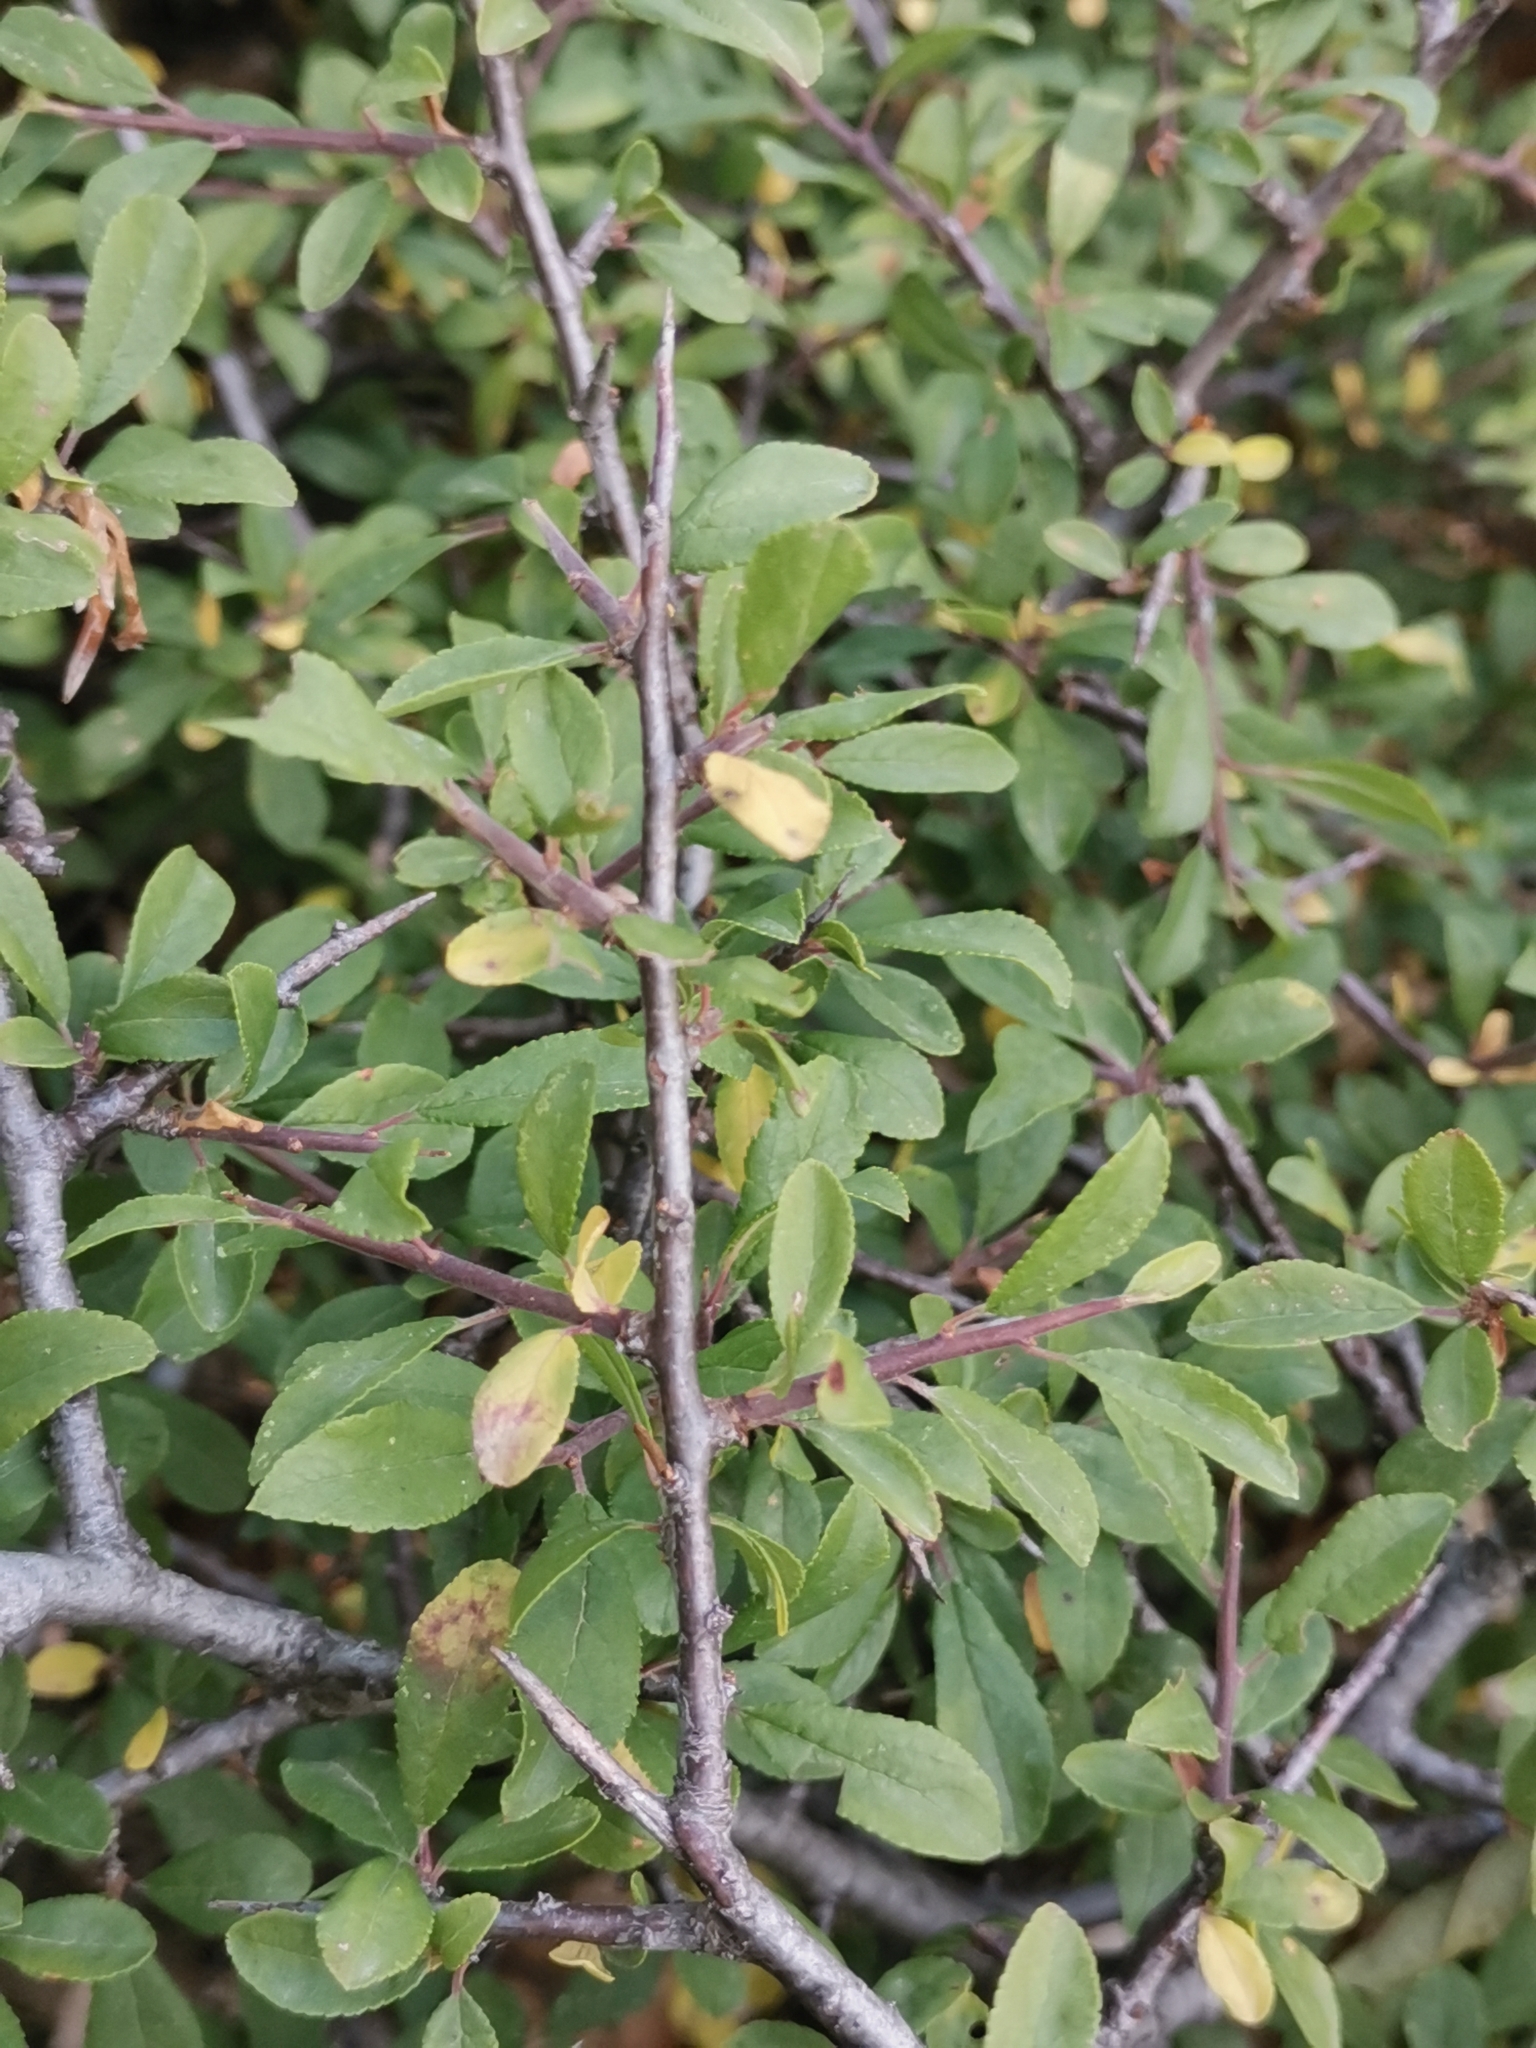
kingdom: Plantae
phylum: Tracheophyta
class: Magnoliopsida
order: Rosales
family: Rosaceae
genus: Prunus
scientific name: Prunus spinosa
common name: Blackthorn
